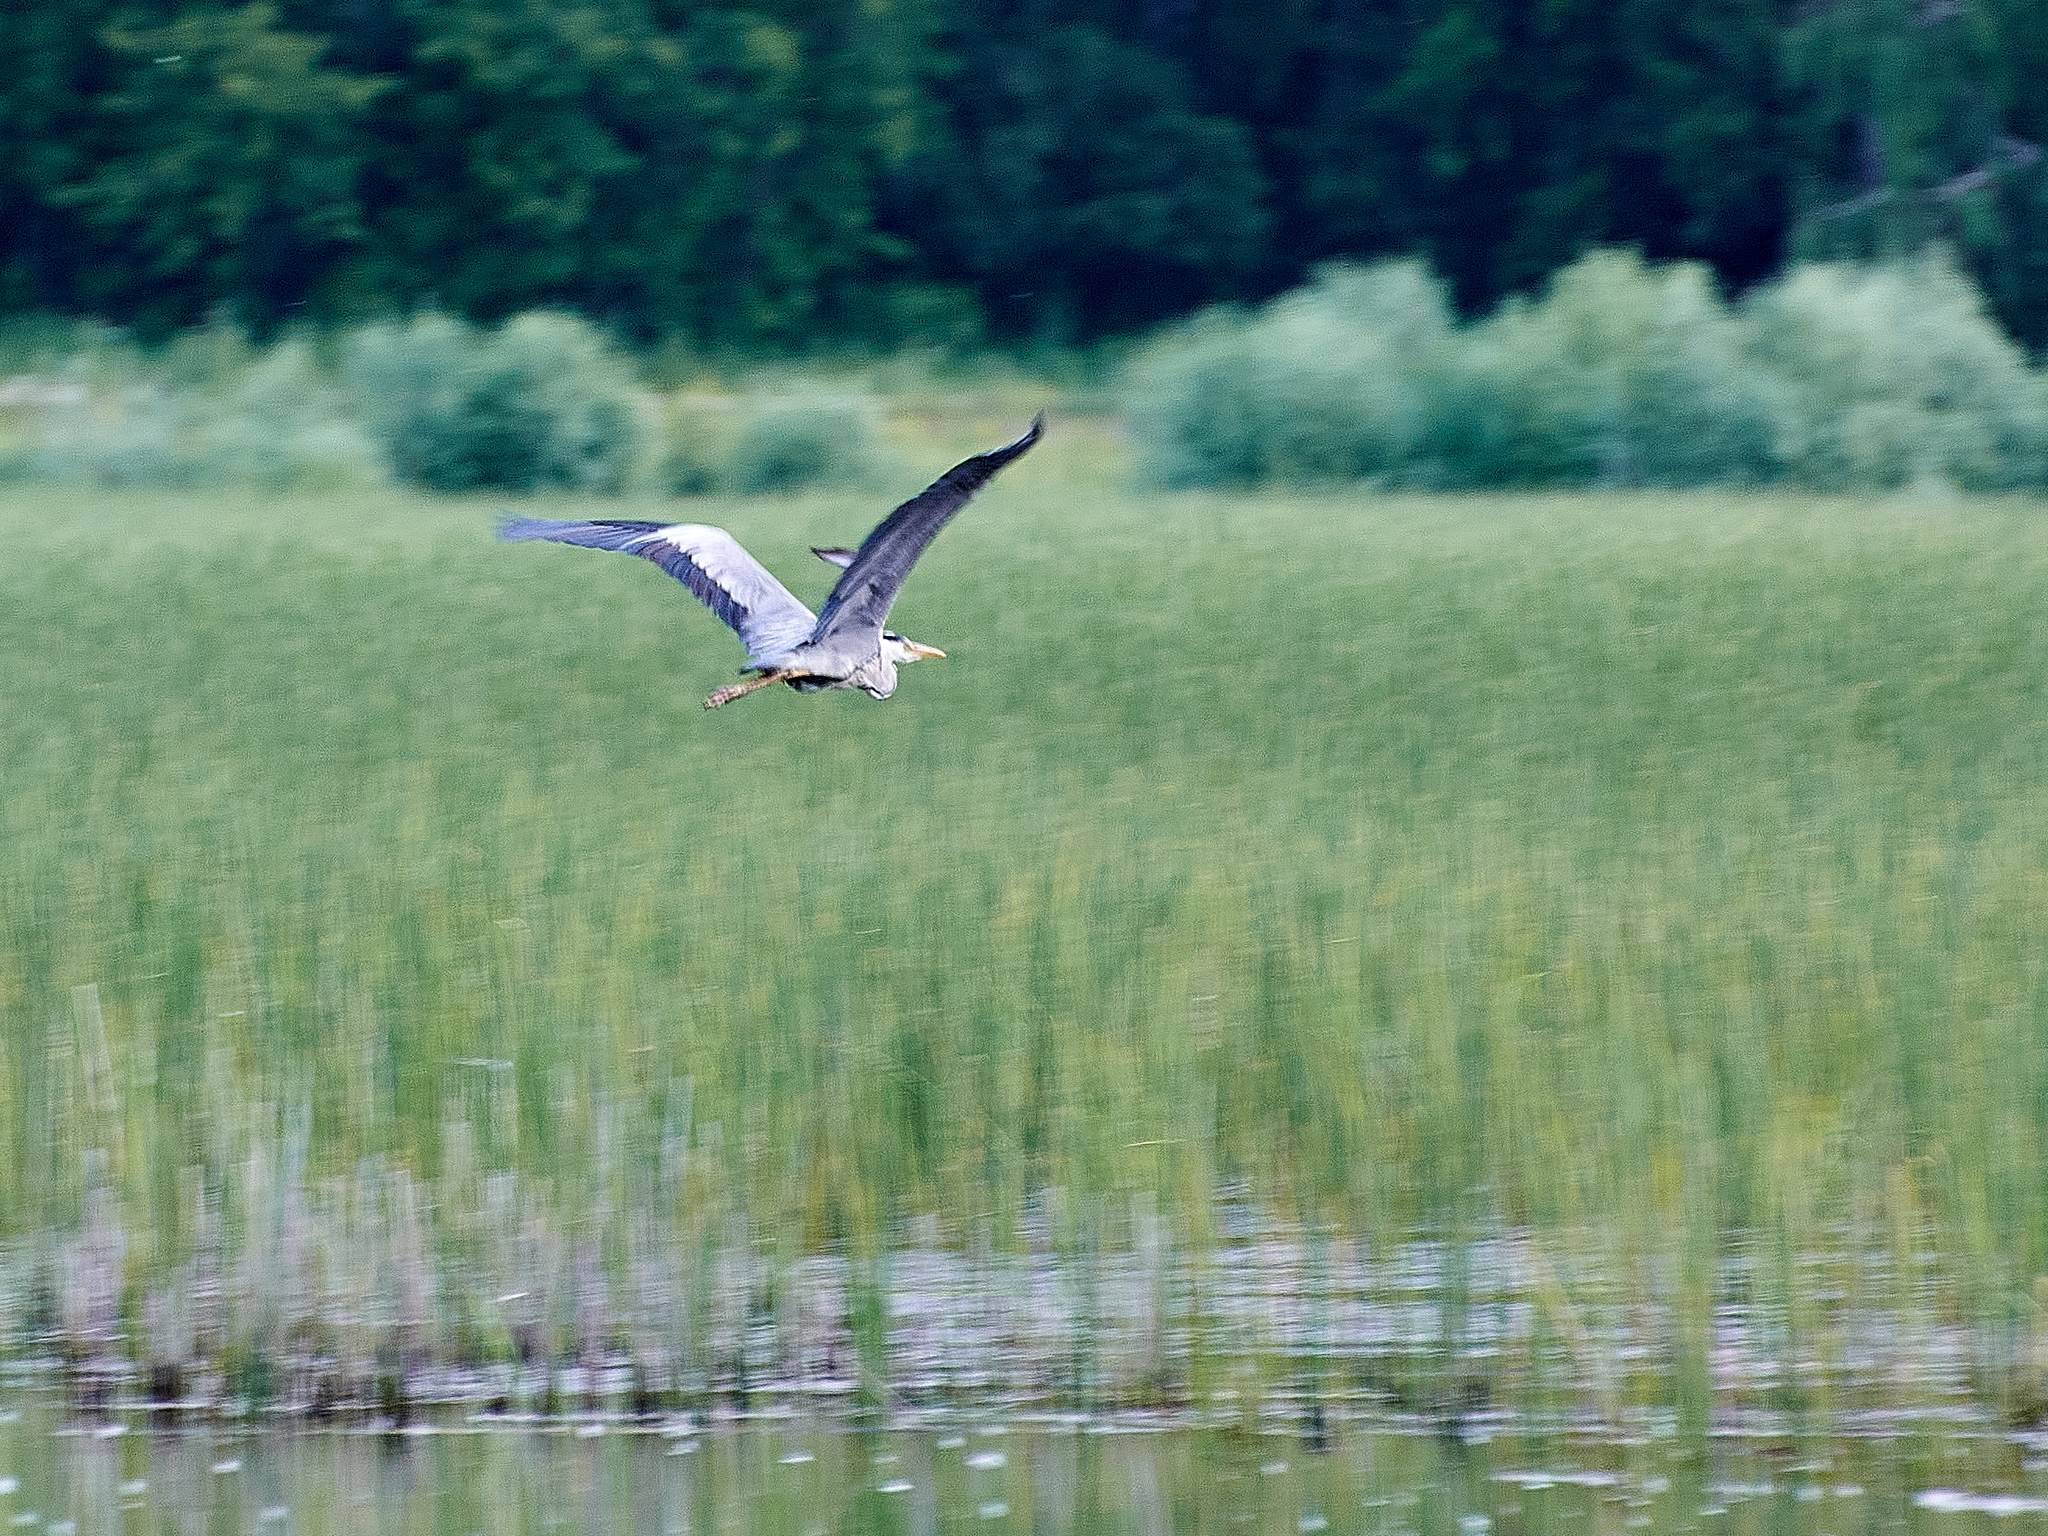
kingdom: Animalia
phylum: Chordata
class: Aves
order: Pelecaniformes
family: Ardeidae
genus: Ardea
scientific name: Ardea cinerea
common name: Grey heron
